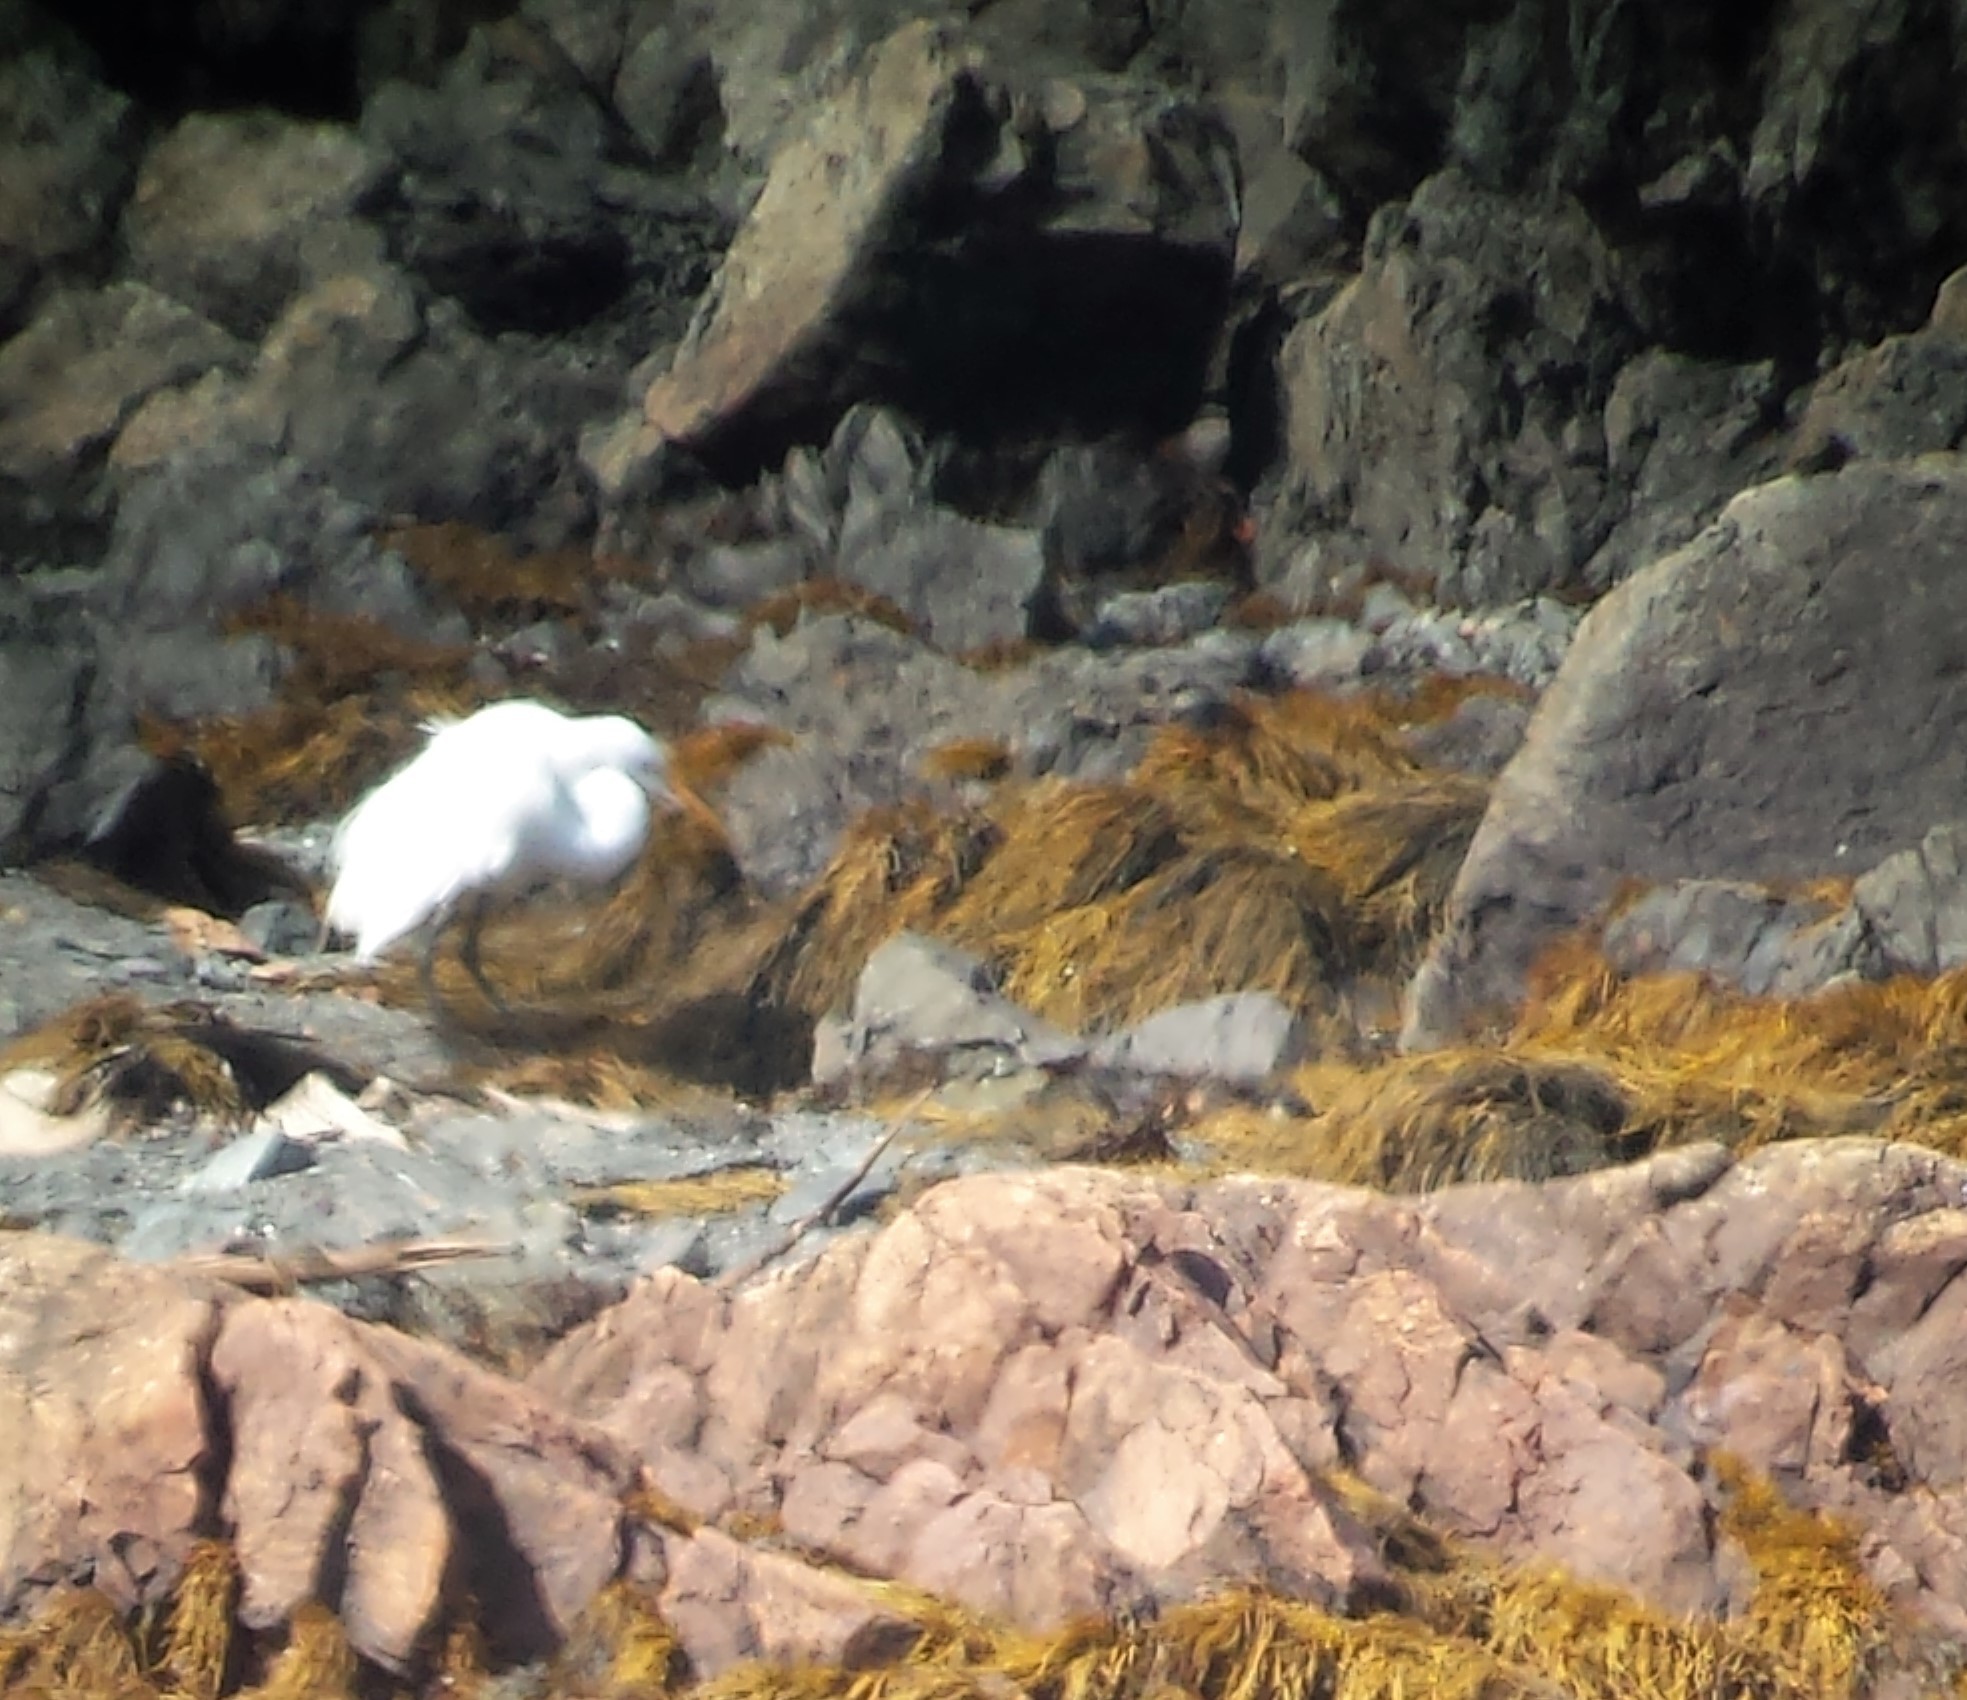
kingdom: Animalia
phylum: Chordata
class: Aves
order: Pelecaniformes
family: Ardeidae
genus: Ardea
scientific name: Ardea alba
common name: Great egret
